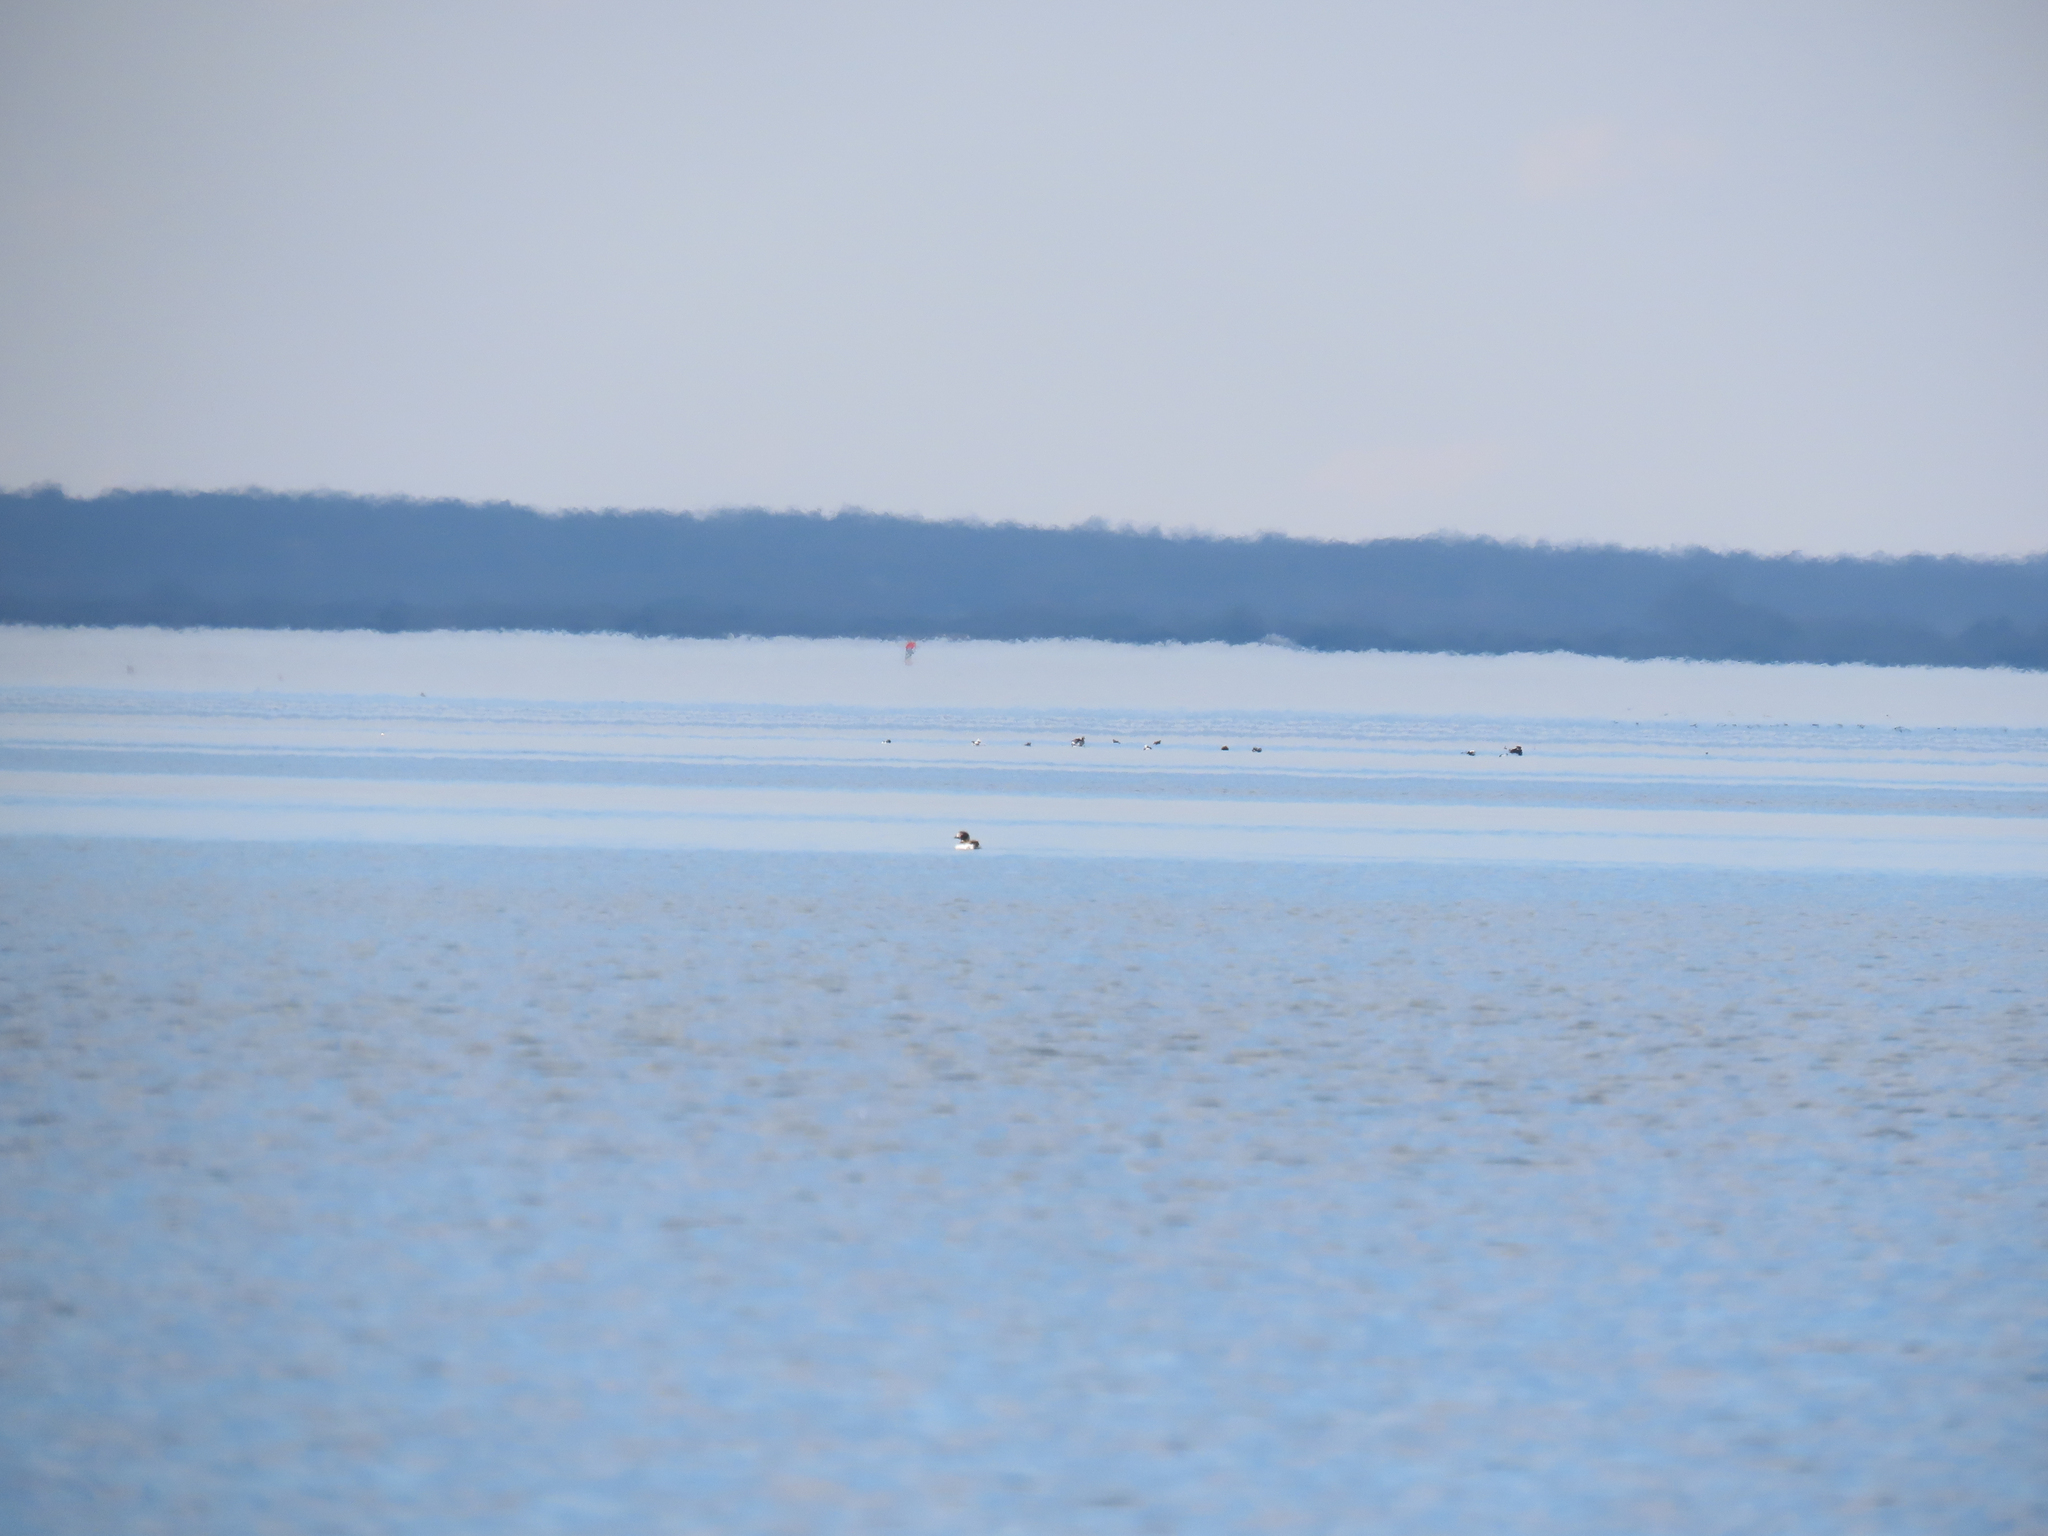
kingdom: Animalia
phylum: Chordata
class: Aves
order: Anseriformes
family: Anatidae
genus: Clangula
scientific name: Clangula hyemalis
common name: Long-tailed duck
